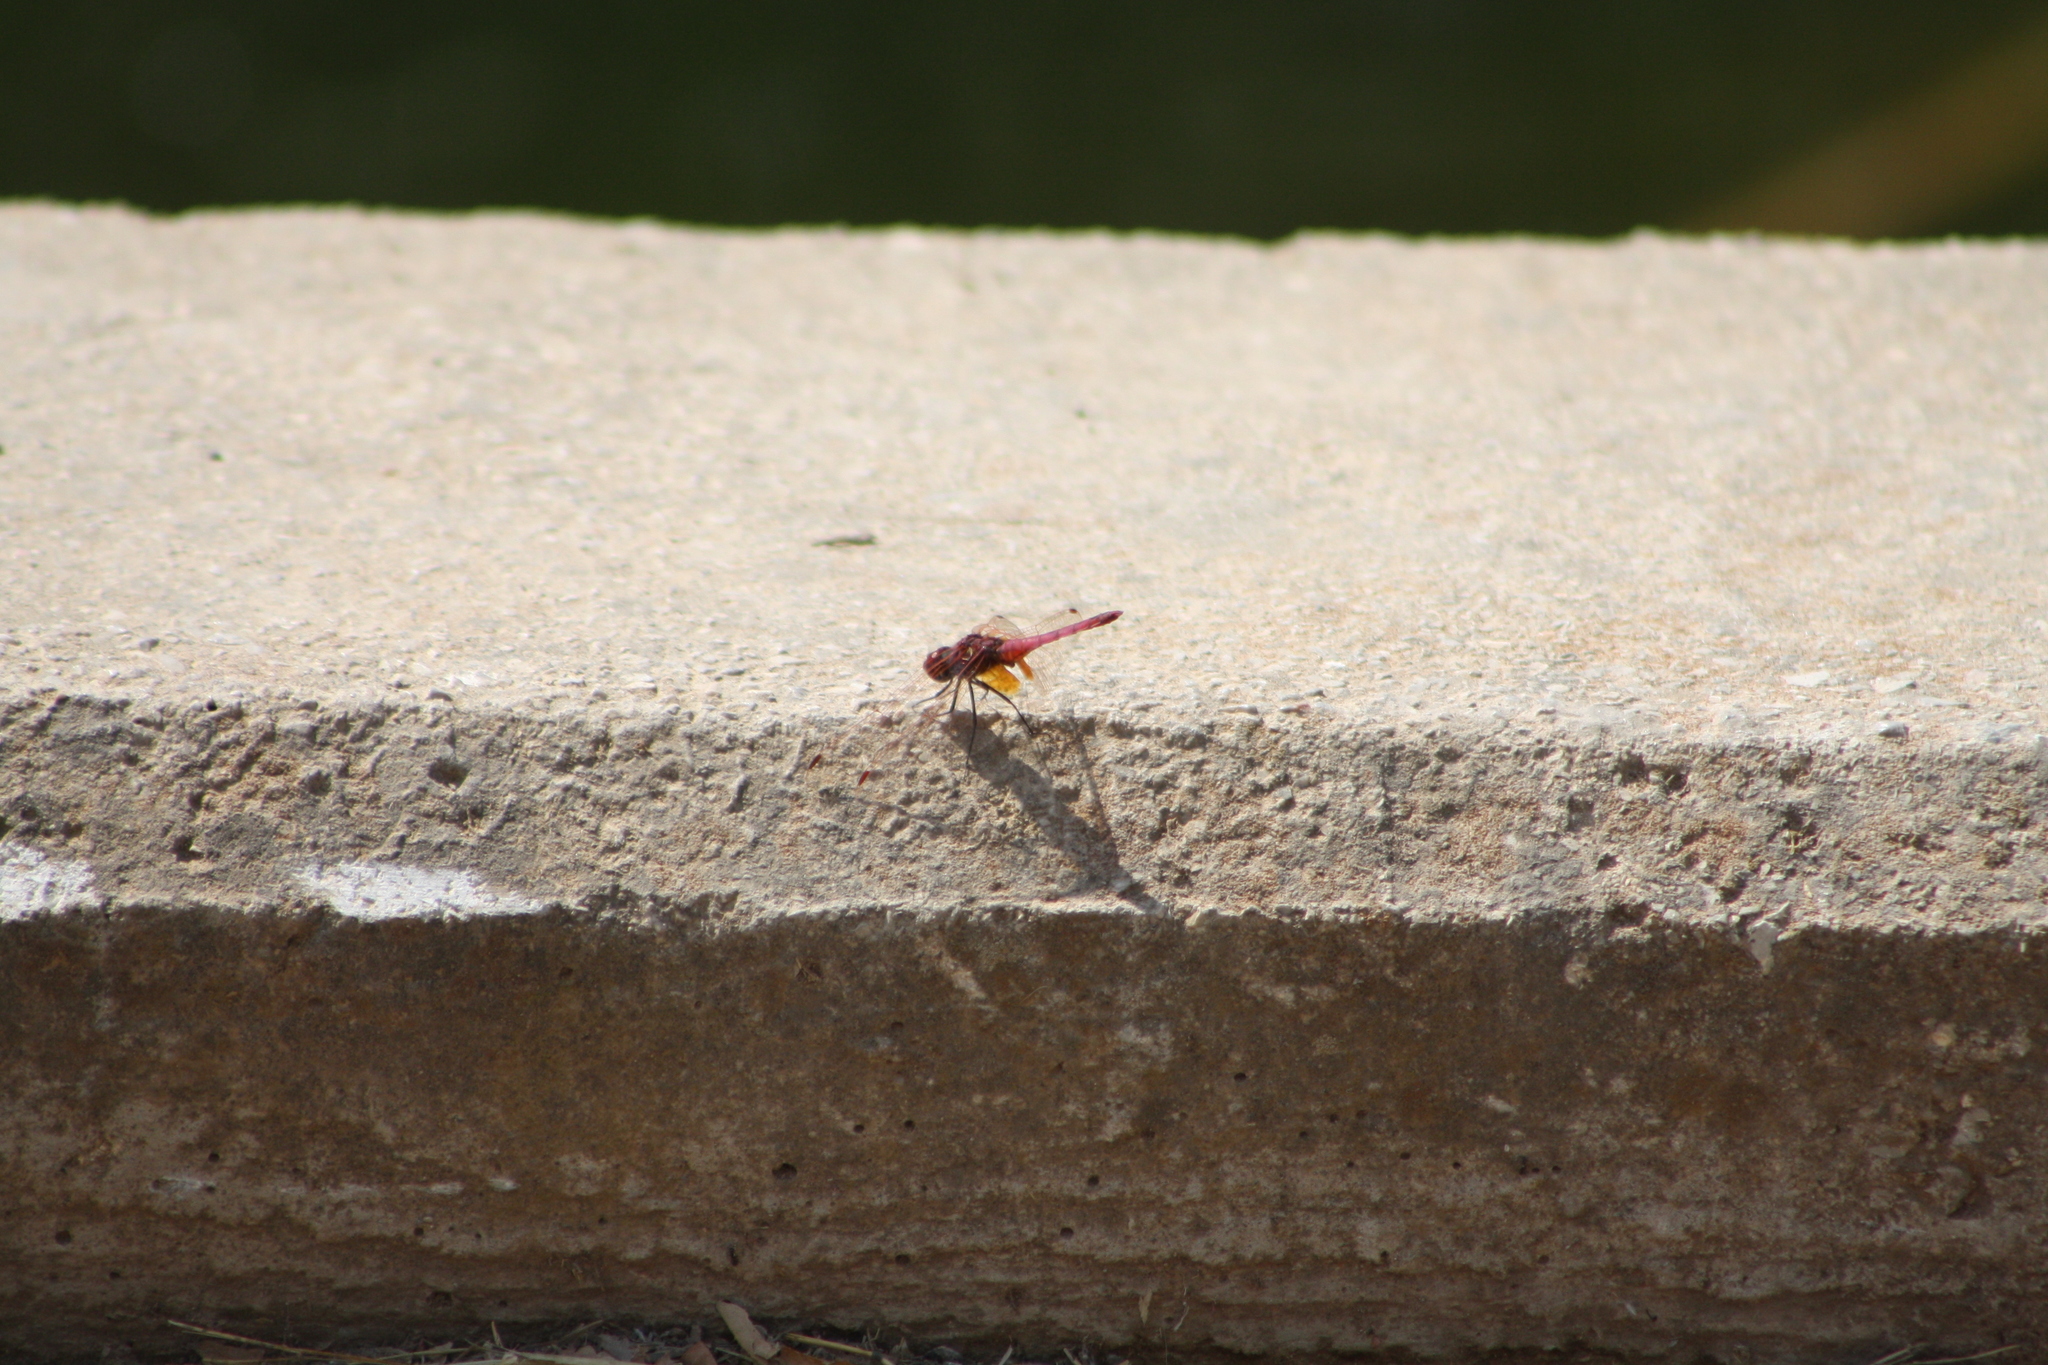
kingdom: Animalia
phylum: Arthropoda
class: Insecta
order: Odonata
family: Libellulidae
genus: Trithemis
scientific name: Trithemis annulata
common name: Violet dropwing
